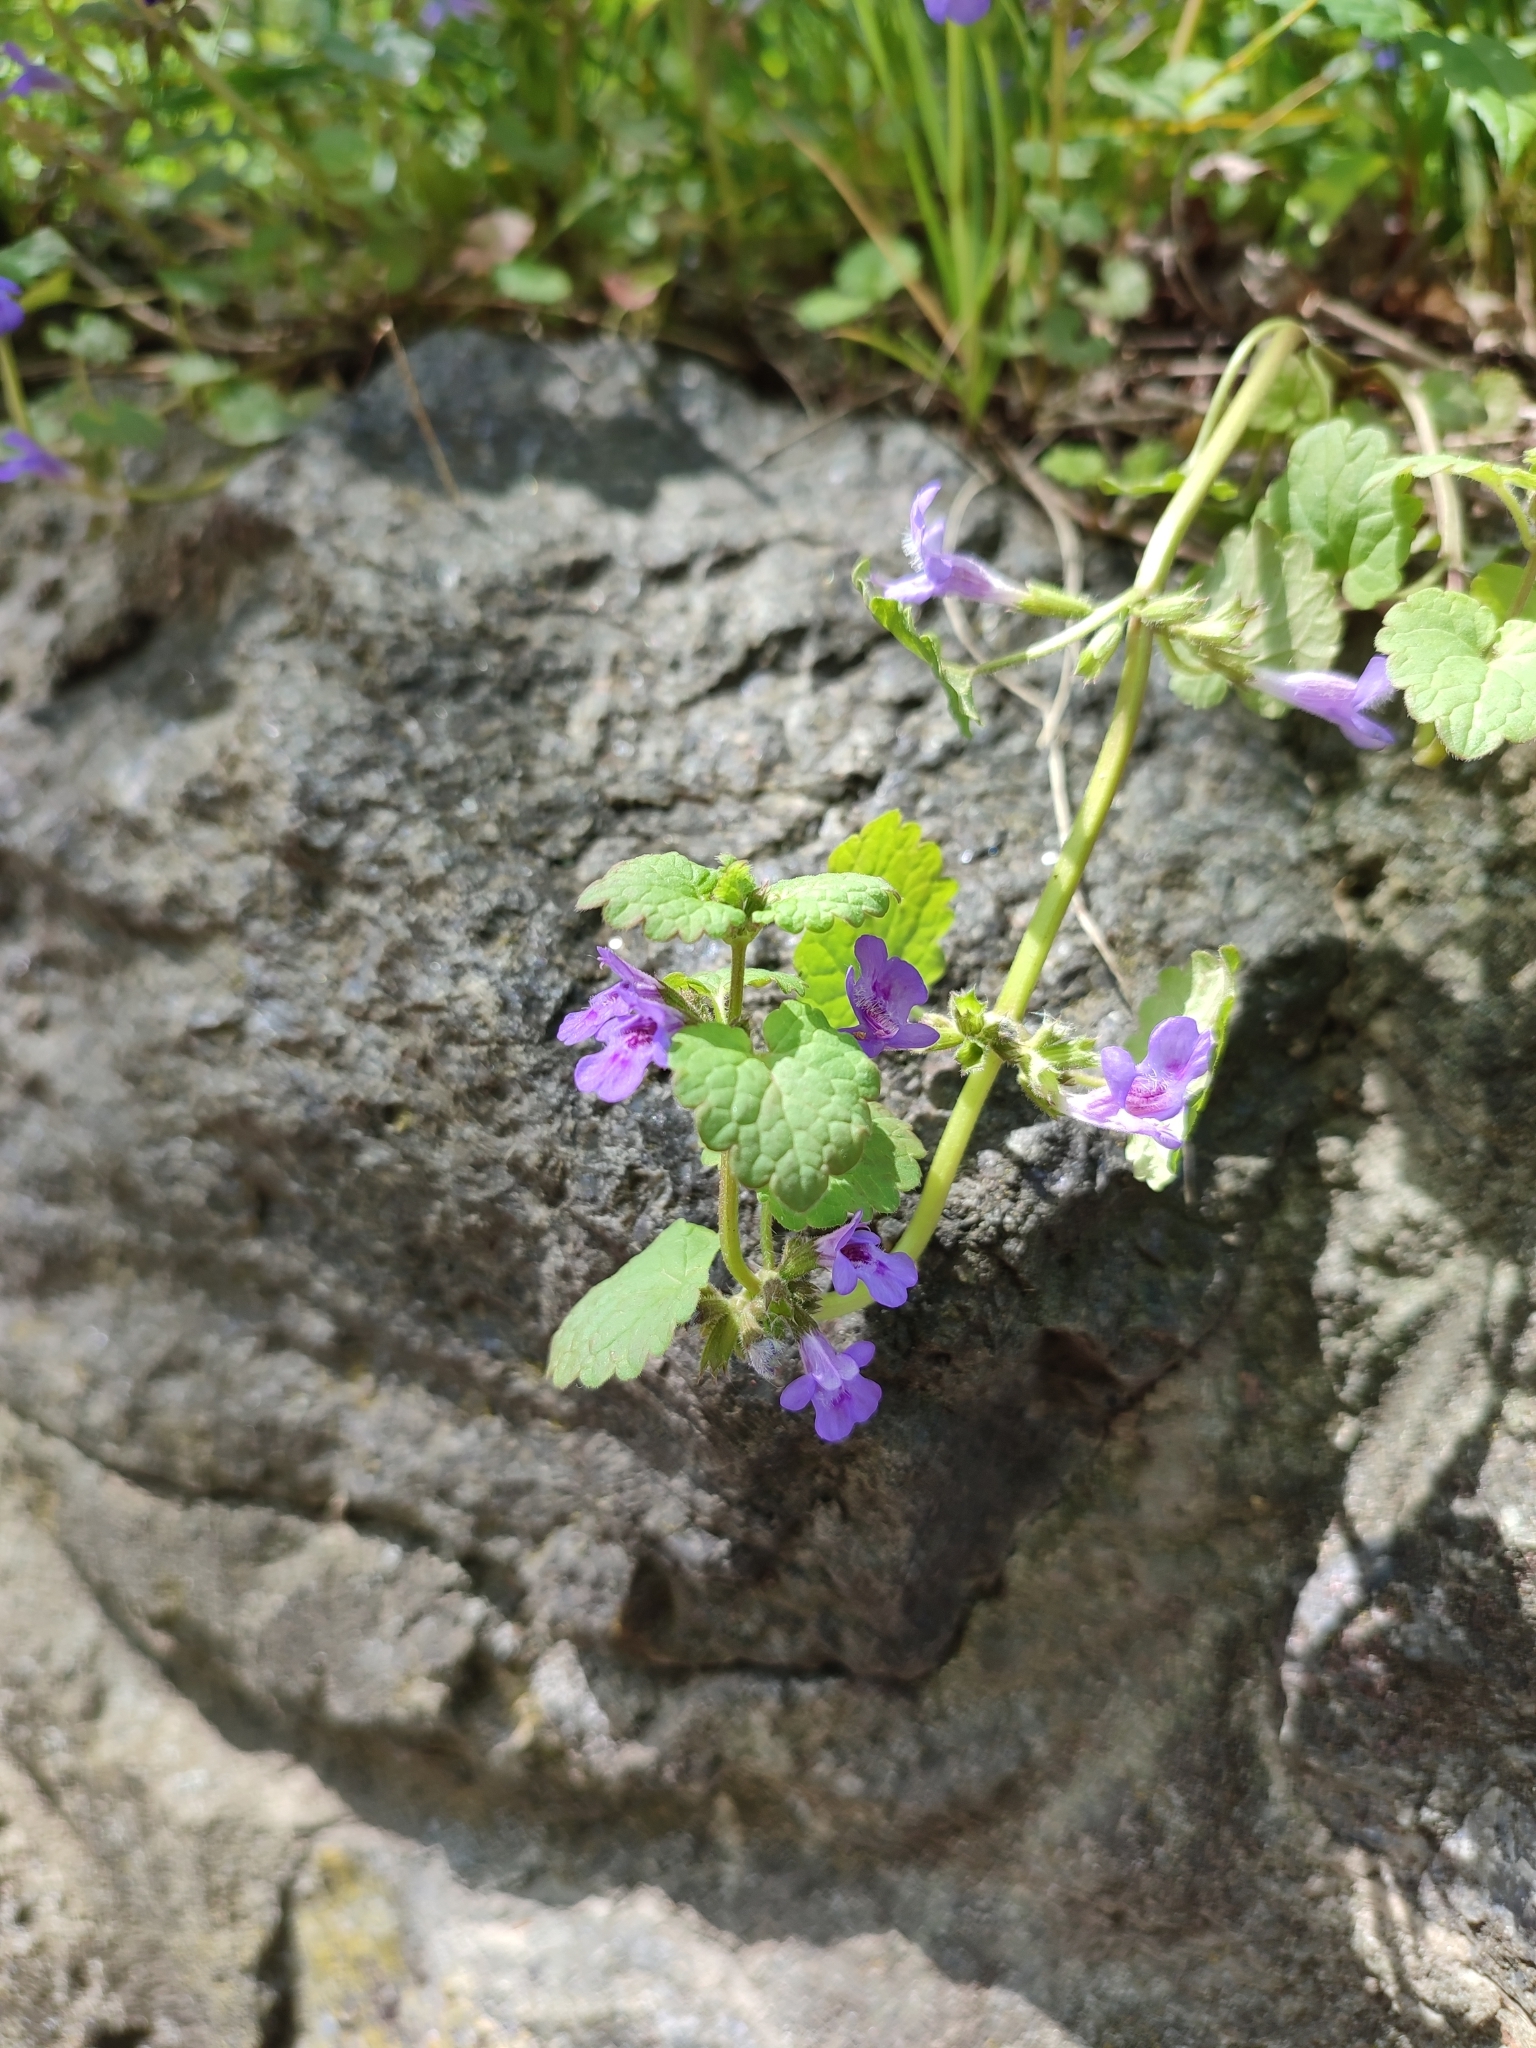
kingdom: Plantae
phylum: Tracheophyta
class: Magnoliopsida
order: Lamiales
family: Lamiaceae
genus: Glechoma
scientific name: Glechoma hederacea
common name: Ground ivy
